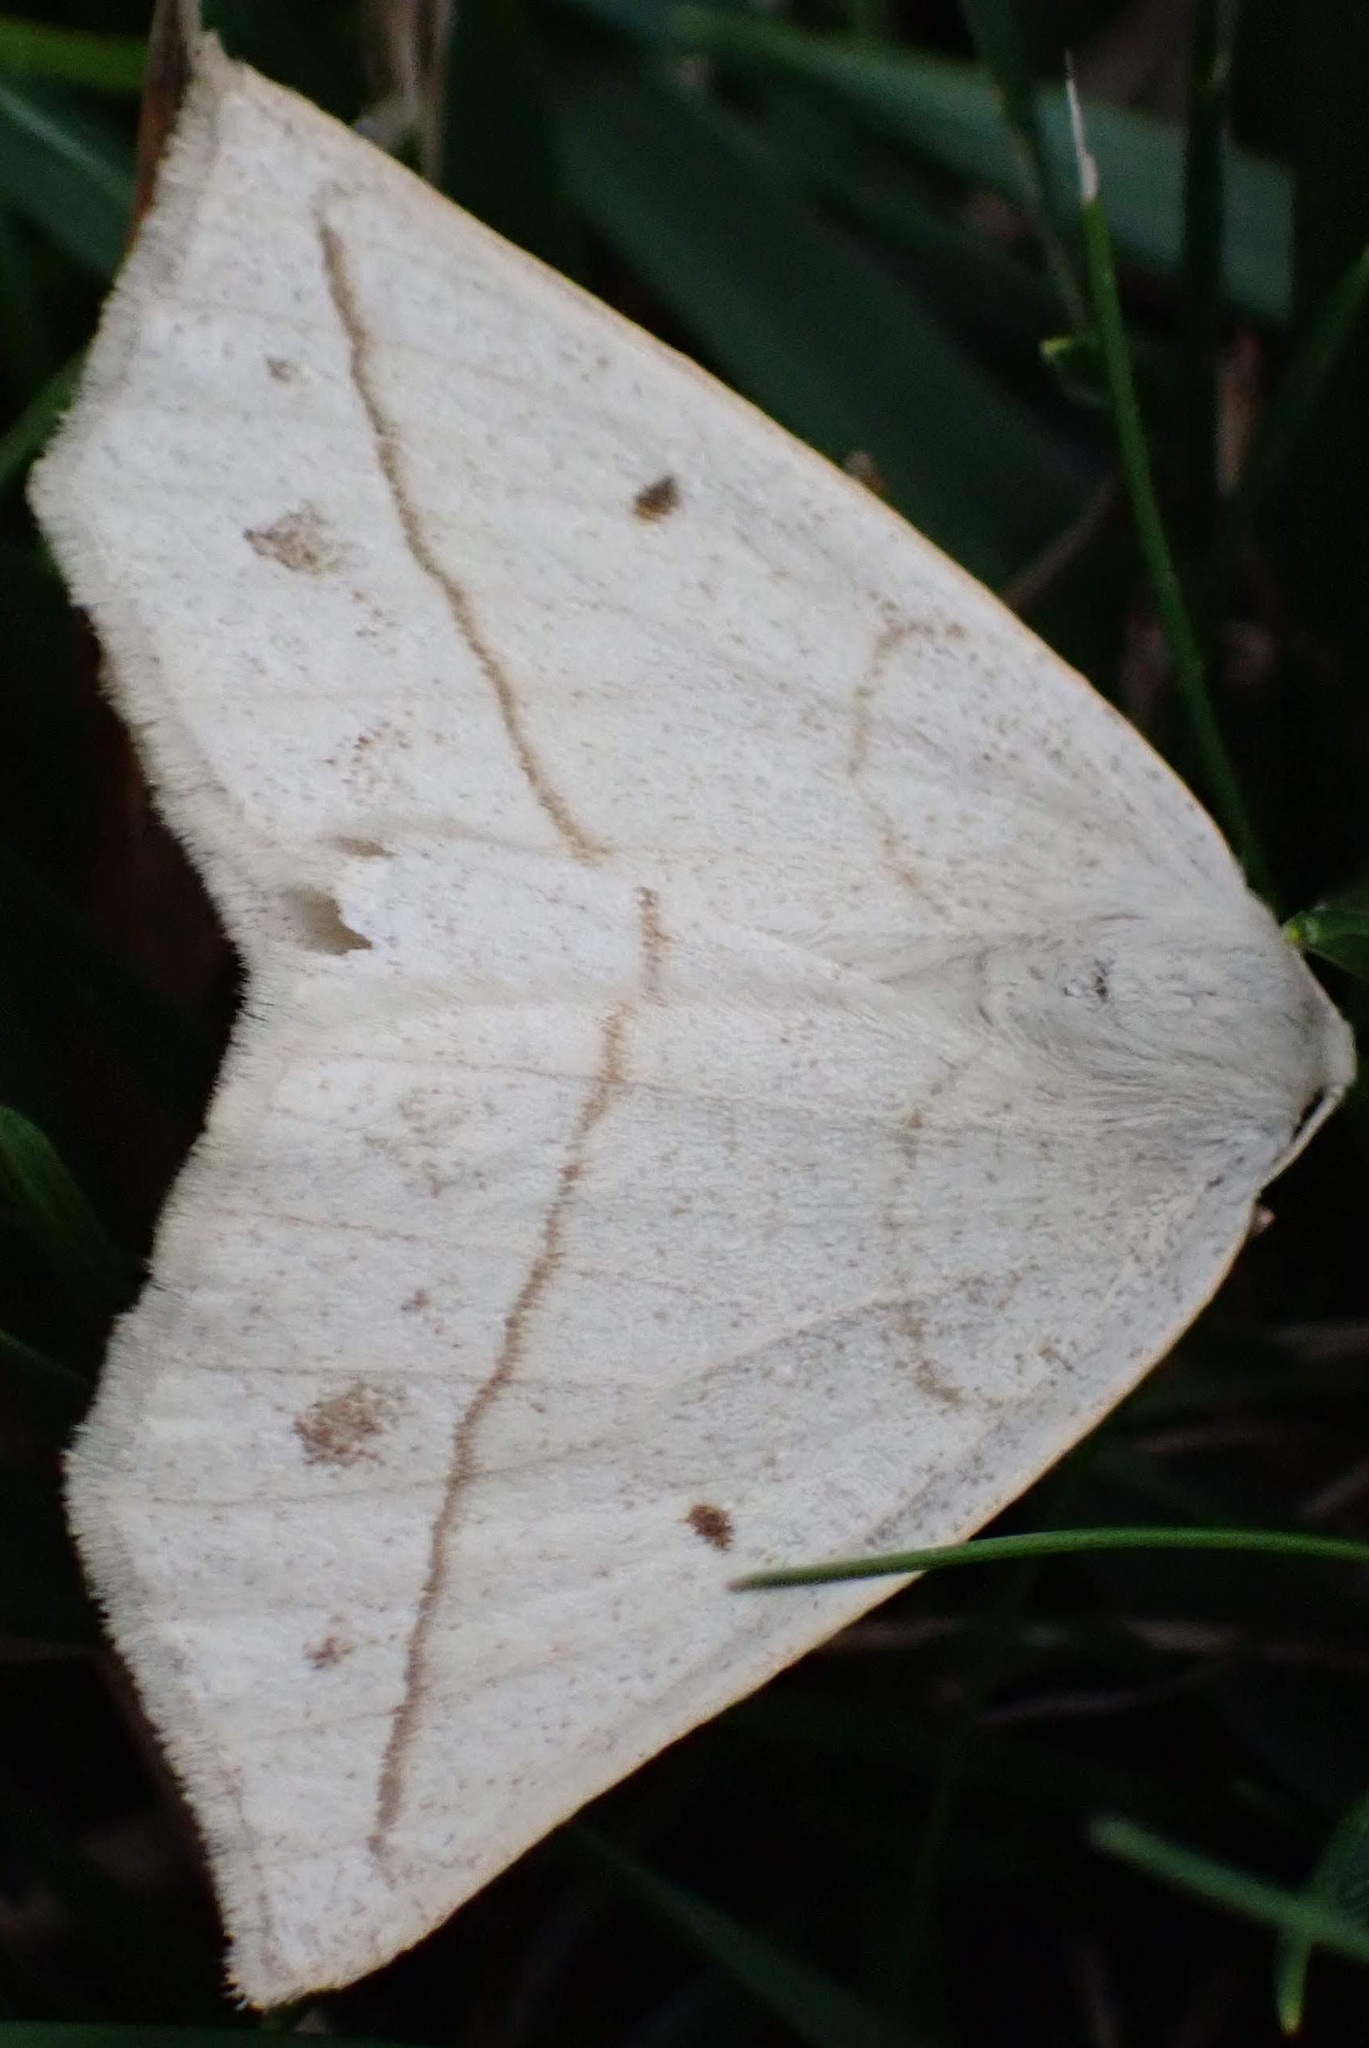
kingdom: Animalia
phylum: Arthropoda
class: Insecta
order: Lepidoptera
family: Geometridae
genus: Eusarca
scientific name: Eusarca confusaria
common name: Confused eusarca
